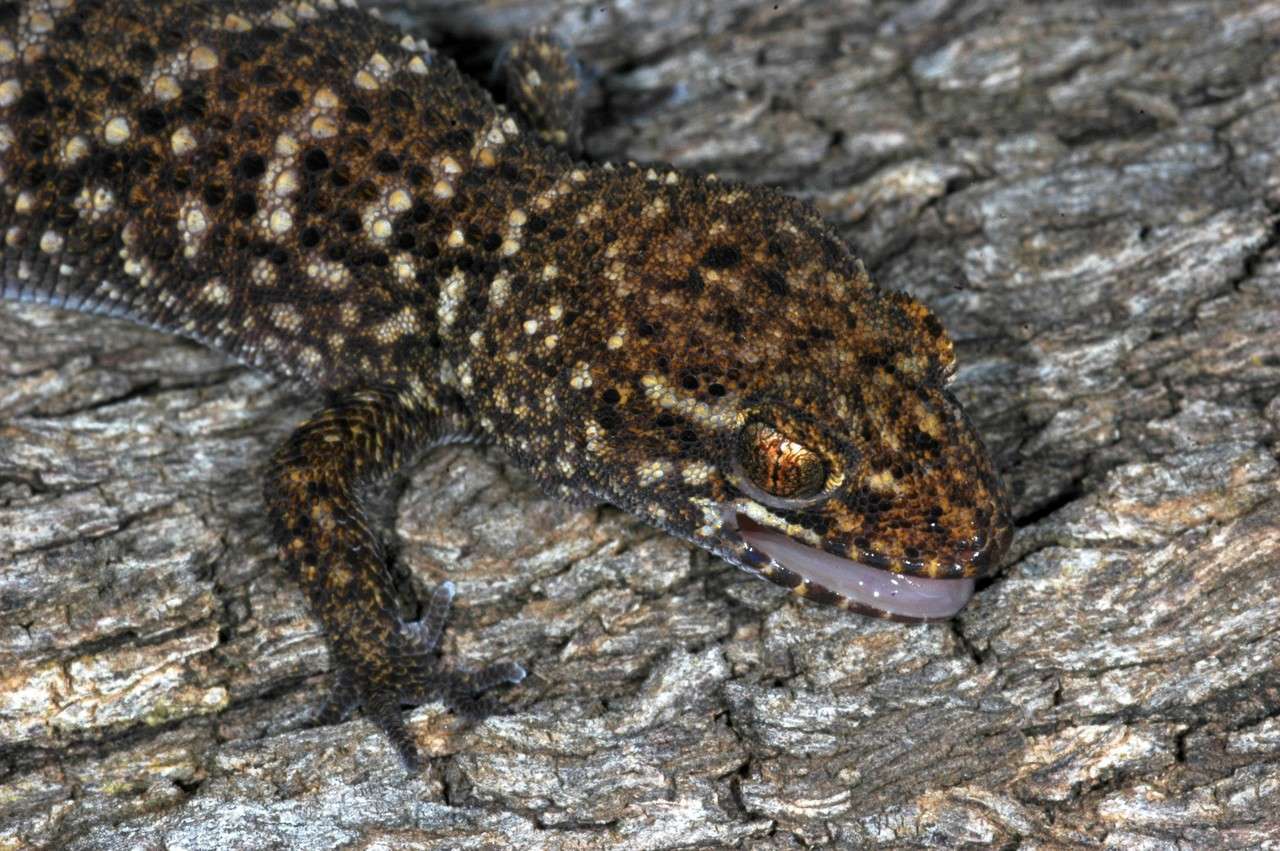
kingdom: Animalia
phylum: Chordata
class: Squamata
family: Gekkonidae
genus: Heteronotia
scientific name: Heteronotia binoei
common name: Bynoe's gecko
